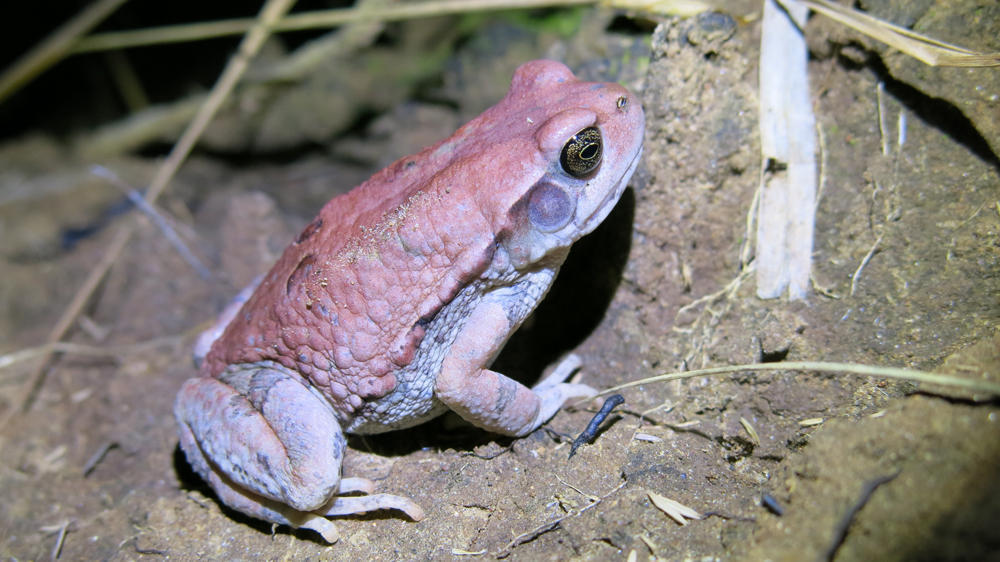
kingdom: Animalia
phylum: Chordata
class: Amphibia
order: Anura
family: Bufonidae
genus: Schismaderma
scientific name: Schismaderma carens
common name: African split-skin toad
